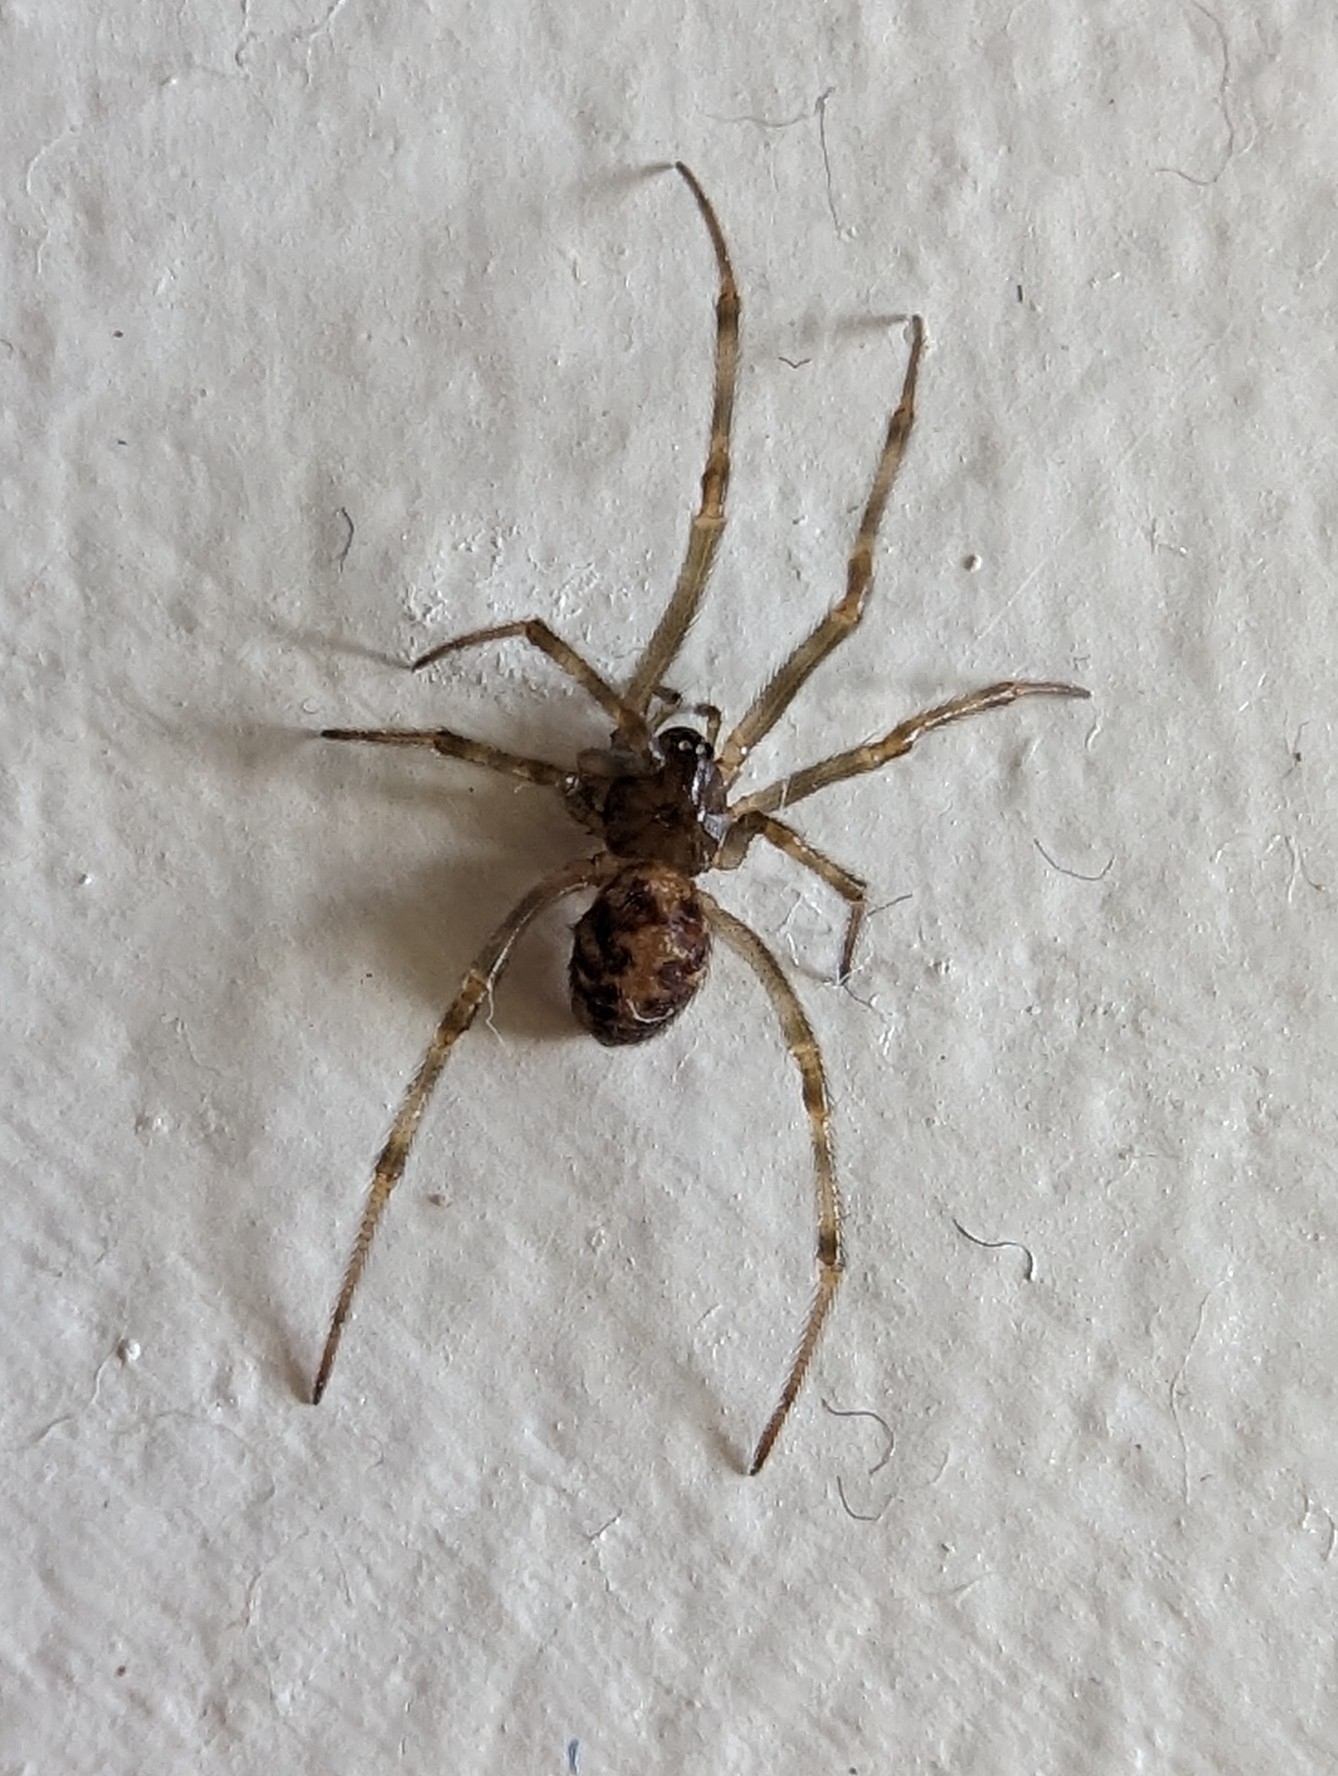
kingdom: Animalia
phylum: Arthropoda
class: Arachnida
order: Araneae
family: Theridiidae
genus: Steatoda
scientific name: Steatoda triangulosa
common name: Triangulate bud spider
